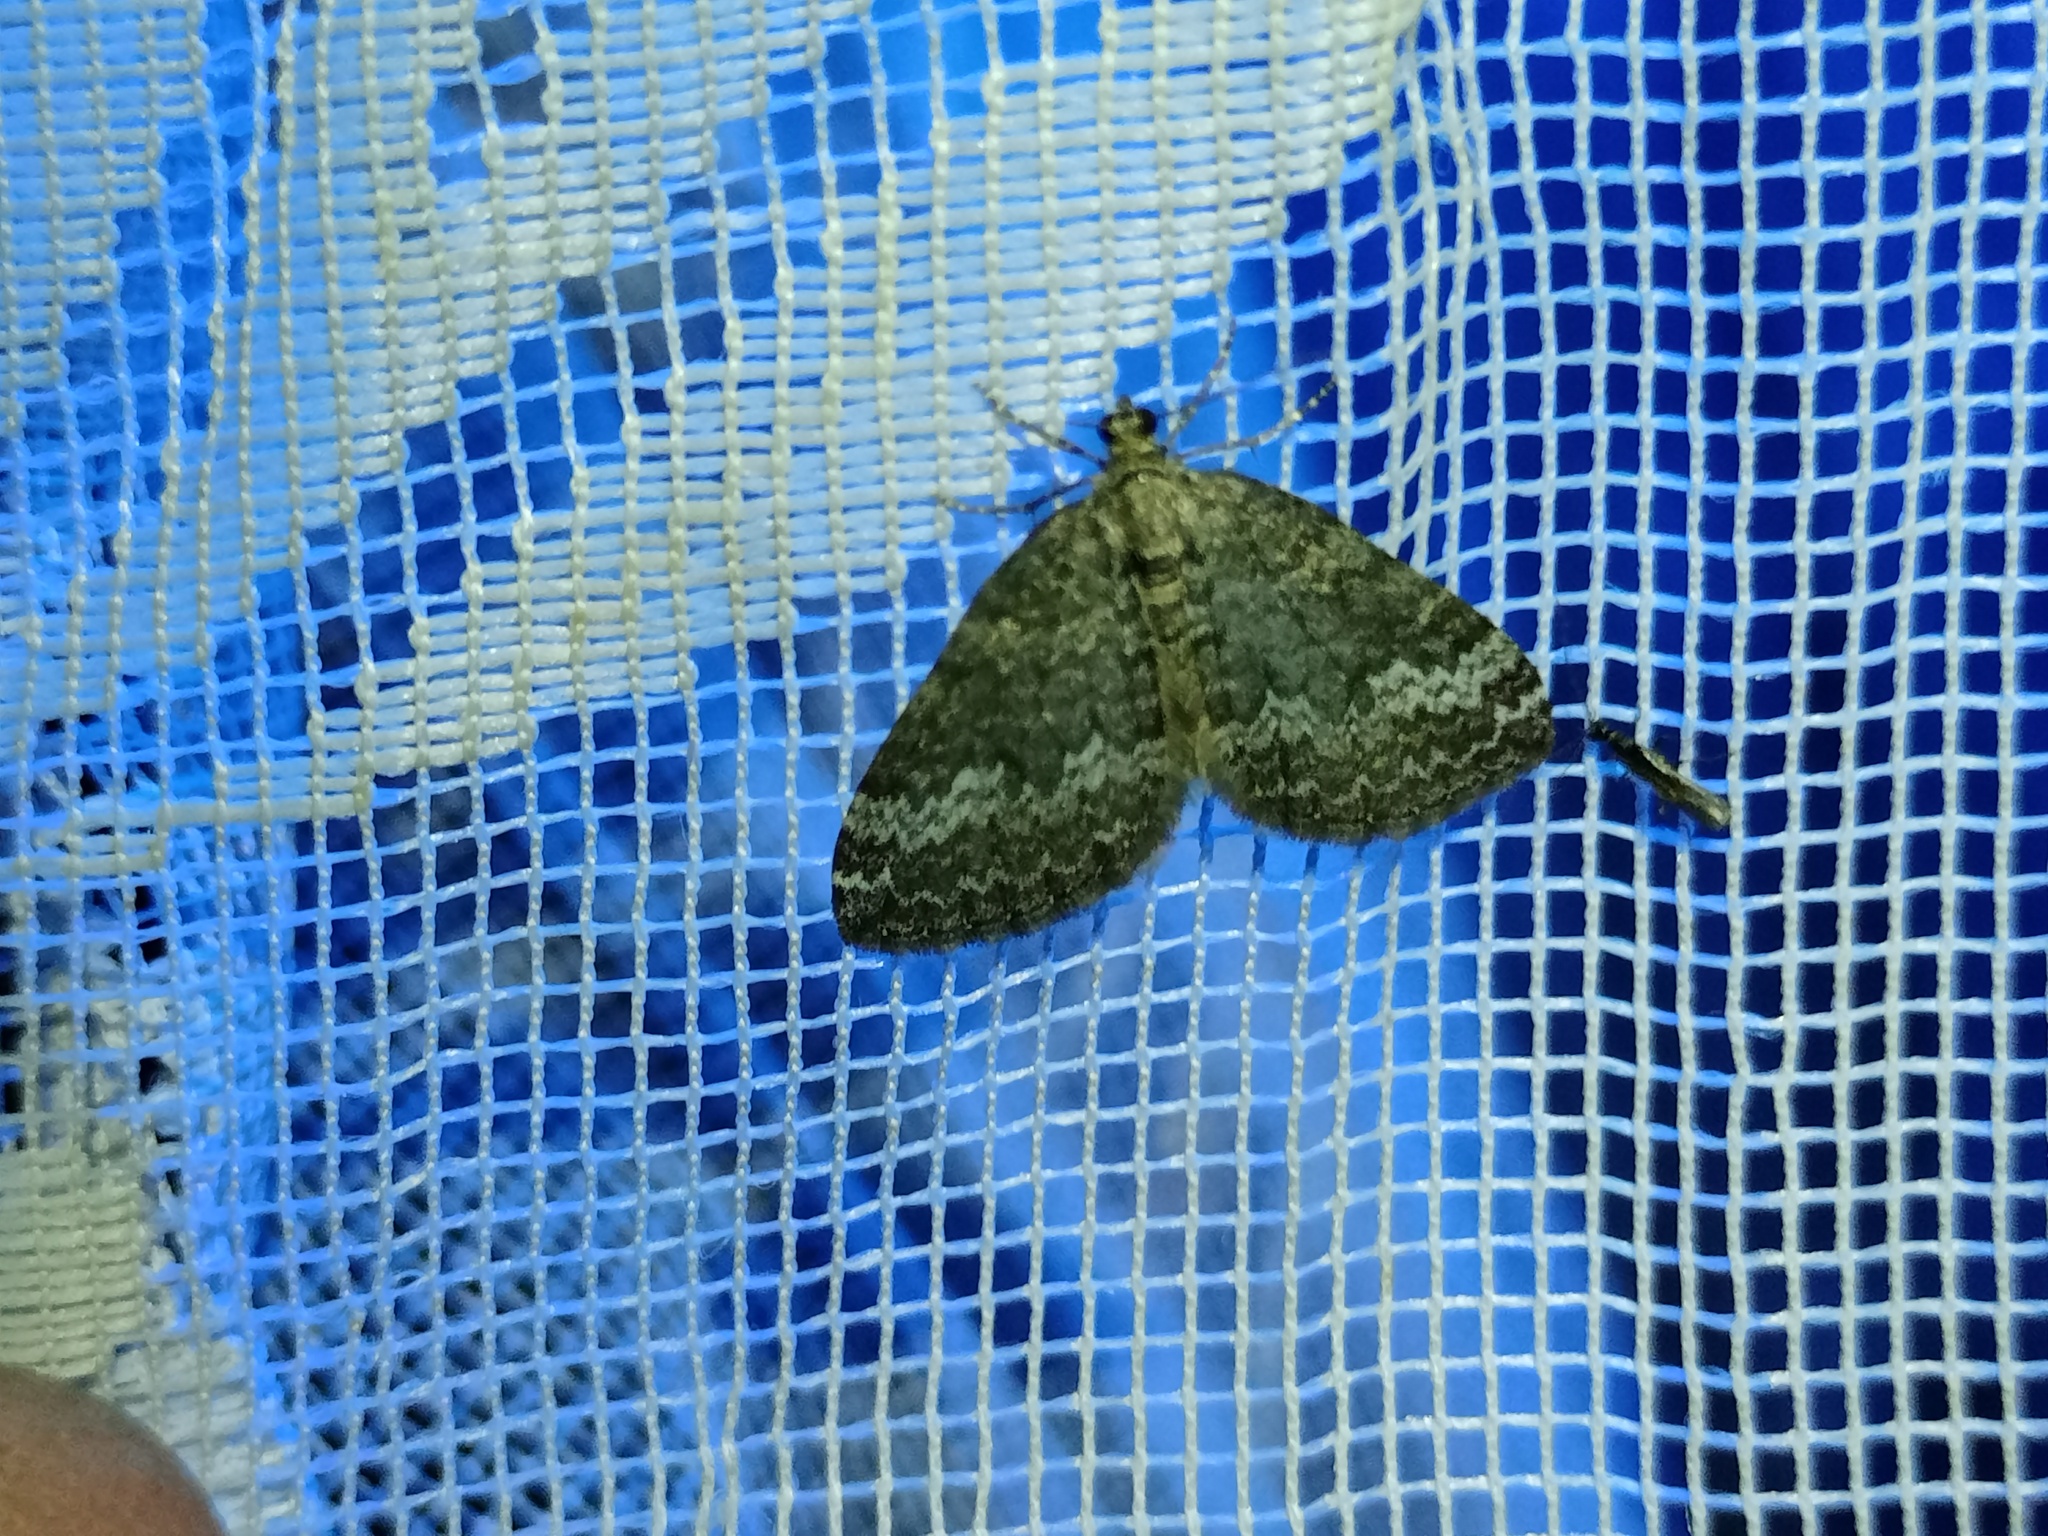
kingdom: Animalia
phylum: Arthropoda
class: Insecta
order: Lepidoptera
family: Geometridae
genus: Perizoma
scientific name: Perizoma hydrata
